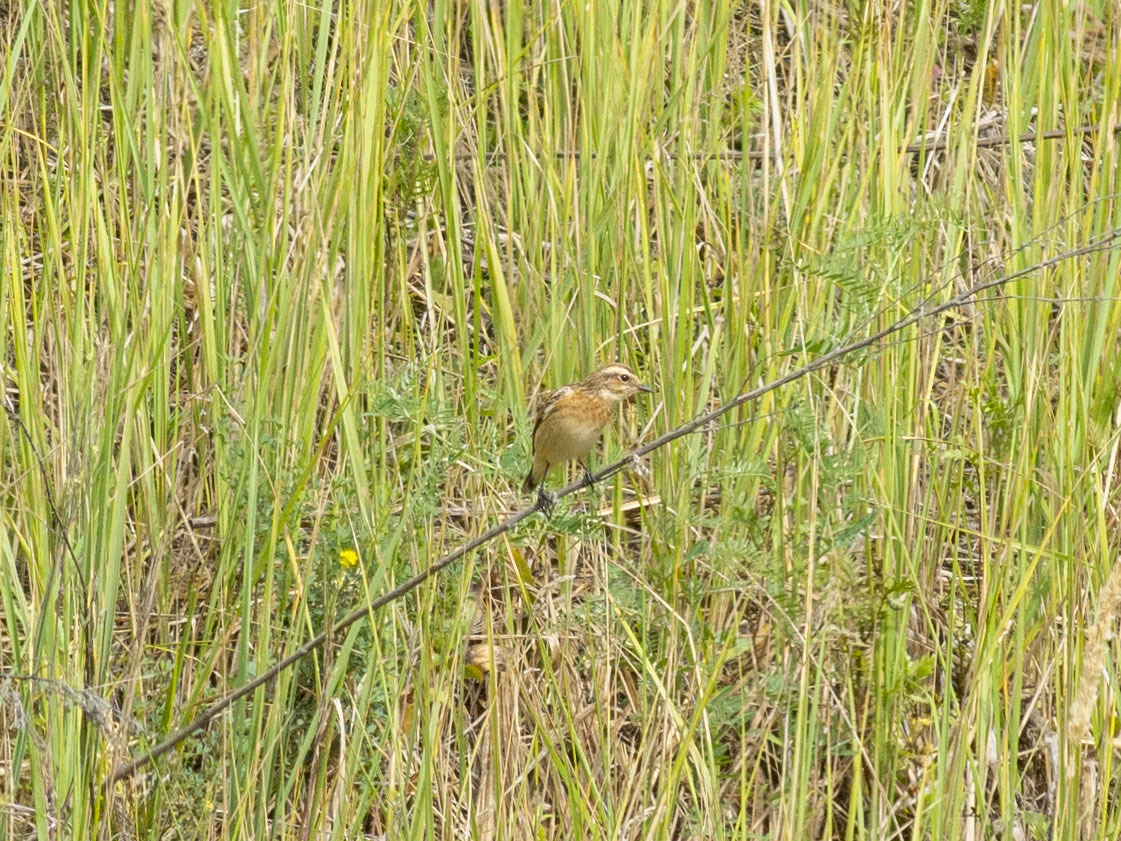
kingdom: Animalia
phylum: Chordata
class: Aves
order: Passeriformes
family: Muscicapidae
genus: Saxicola
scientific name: Saxicola rubetra
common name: Whinchat
